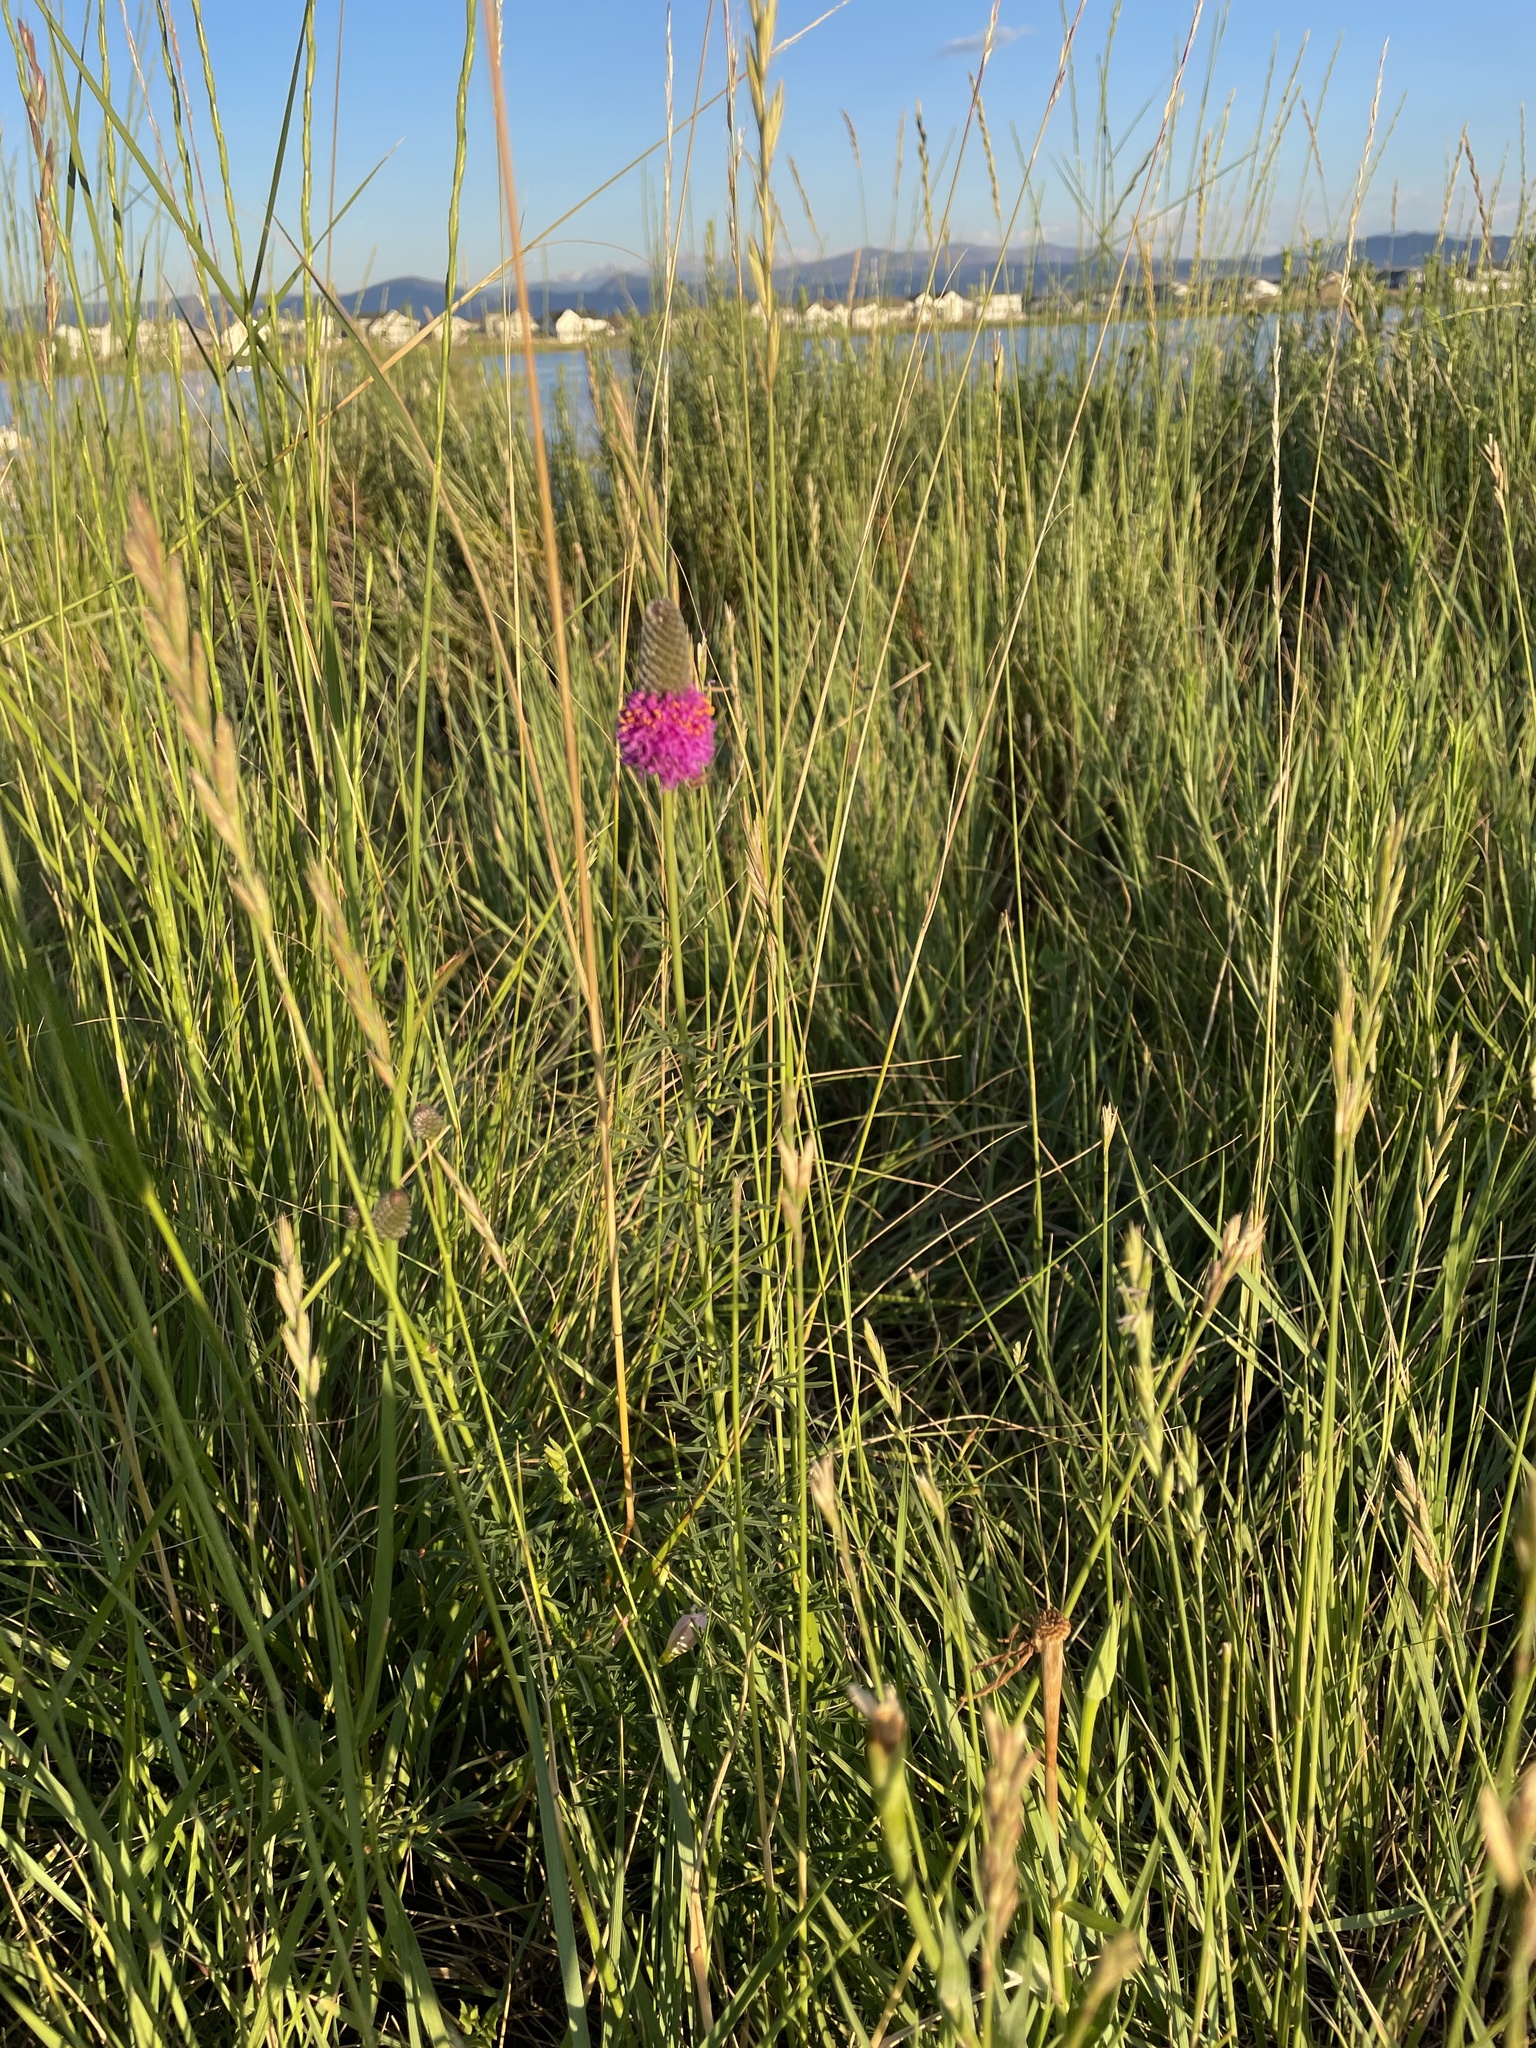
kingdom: Plantae
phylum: Tracheophyta
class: Magnoliopsida
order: Fabales
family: Fabaceae
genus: Dalea
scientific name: Dalea purpurea
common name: Purple prairie-clover
